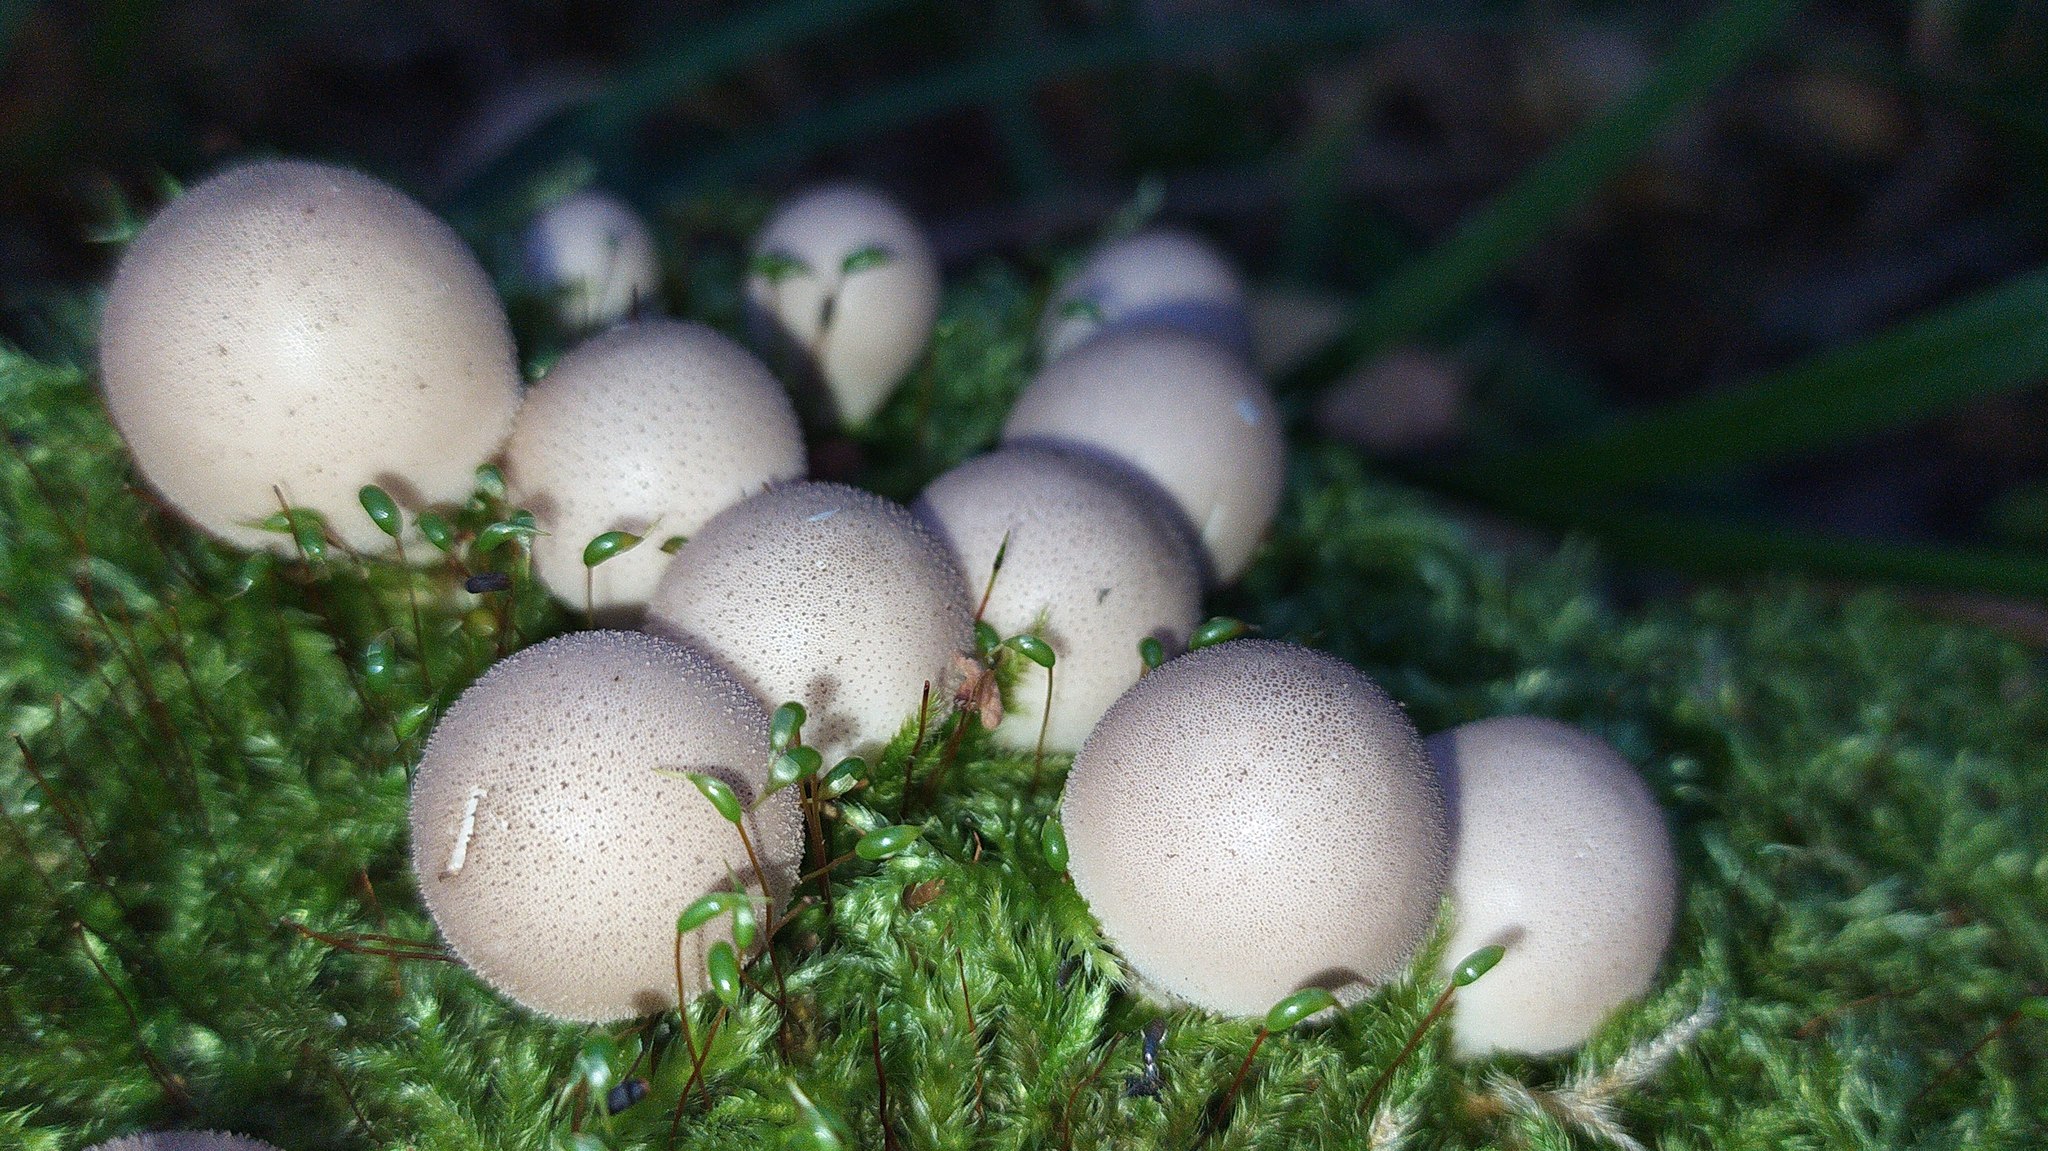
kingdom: Fungi
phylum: Basidiomycota
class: Agaricomycetes
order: Agaricales
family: Lycoperdaceae
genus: Apioperdon
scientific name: Apioperdon pyriforme
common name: Pear-shaped puffball
